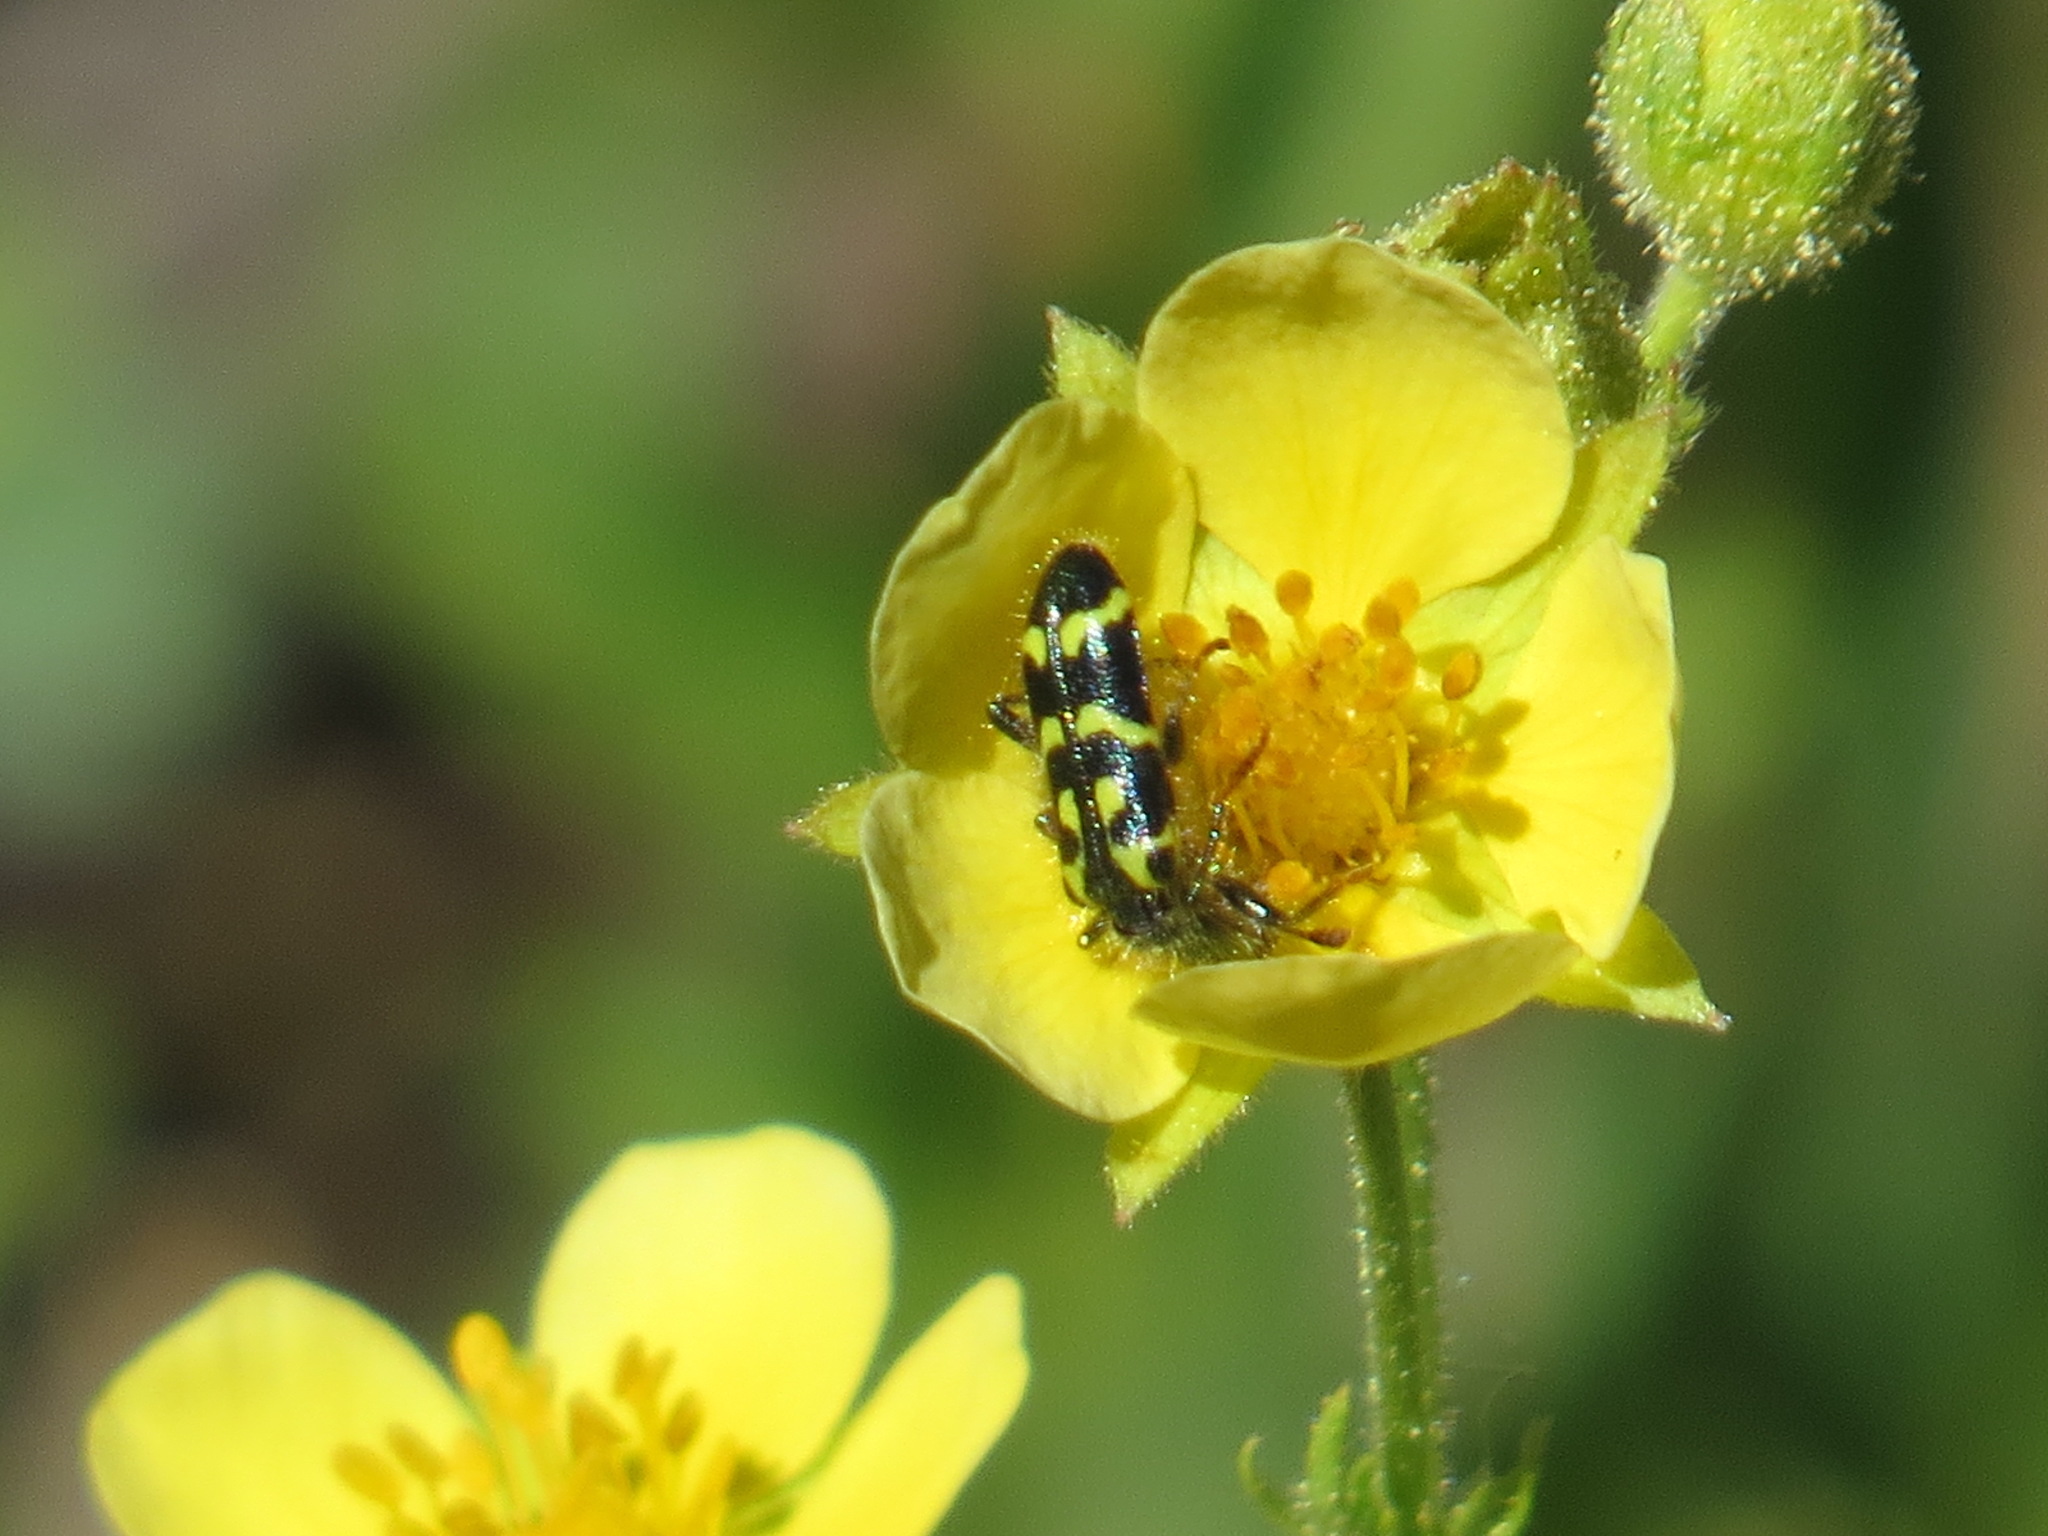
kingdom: Animalia
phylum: Arthropoda
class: Insecta
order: Coleoptera
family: Cleridae
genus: Trichodes
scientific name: Trichodes ornatus
